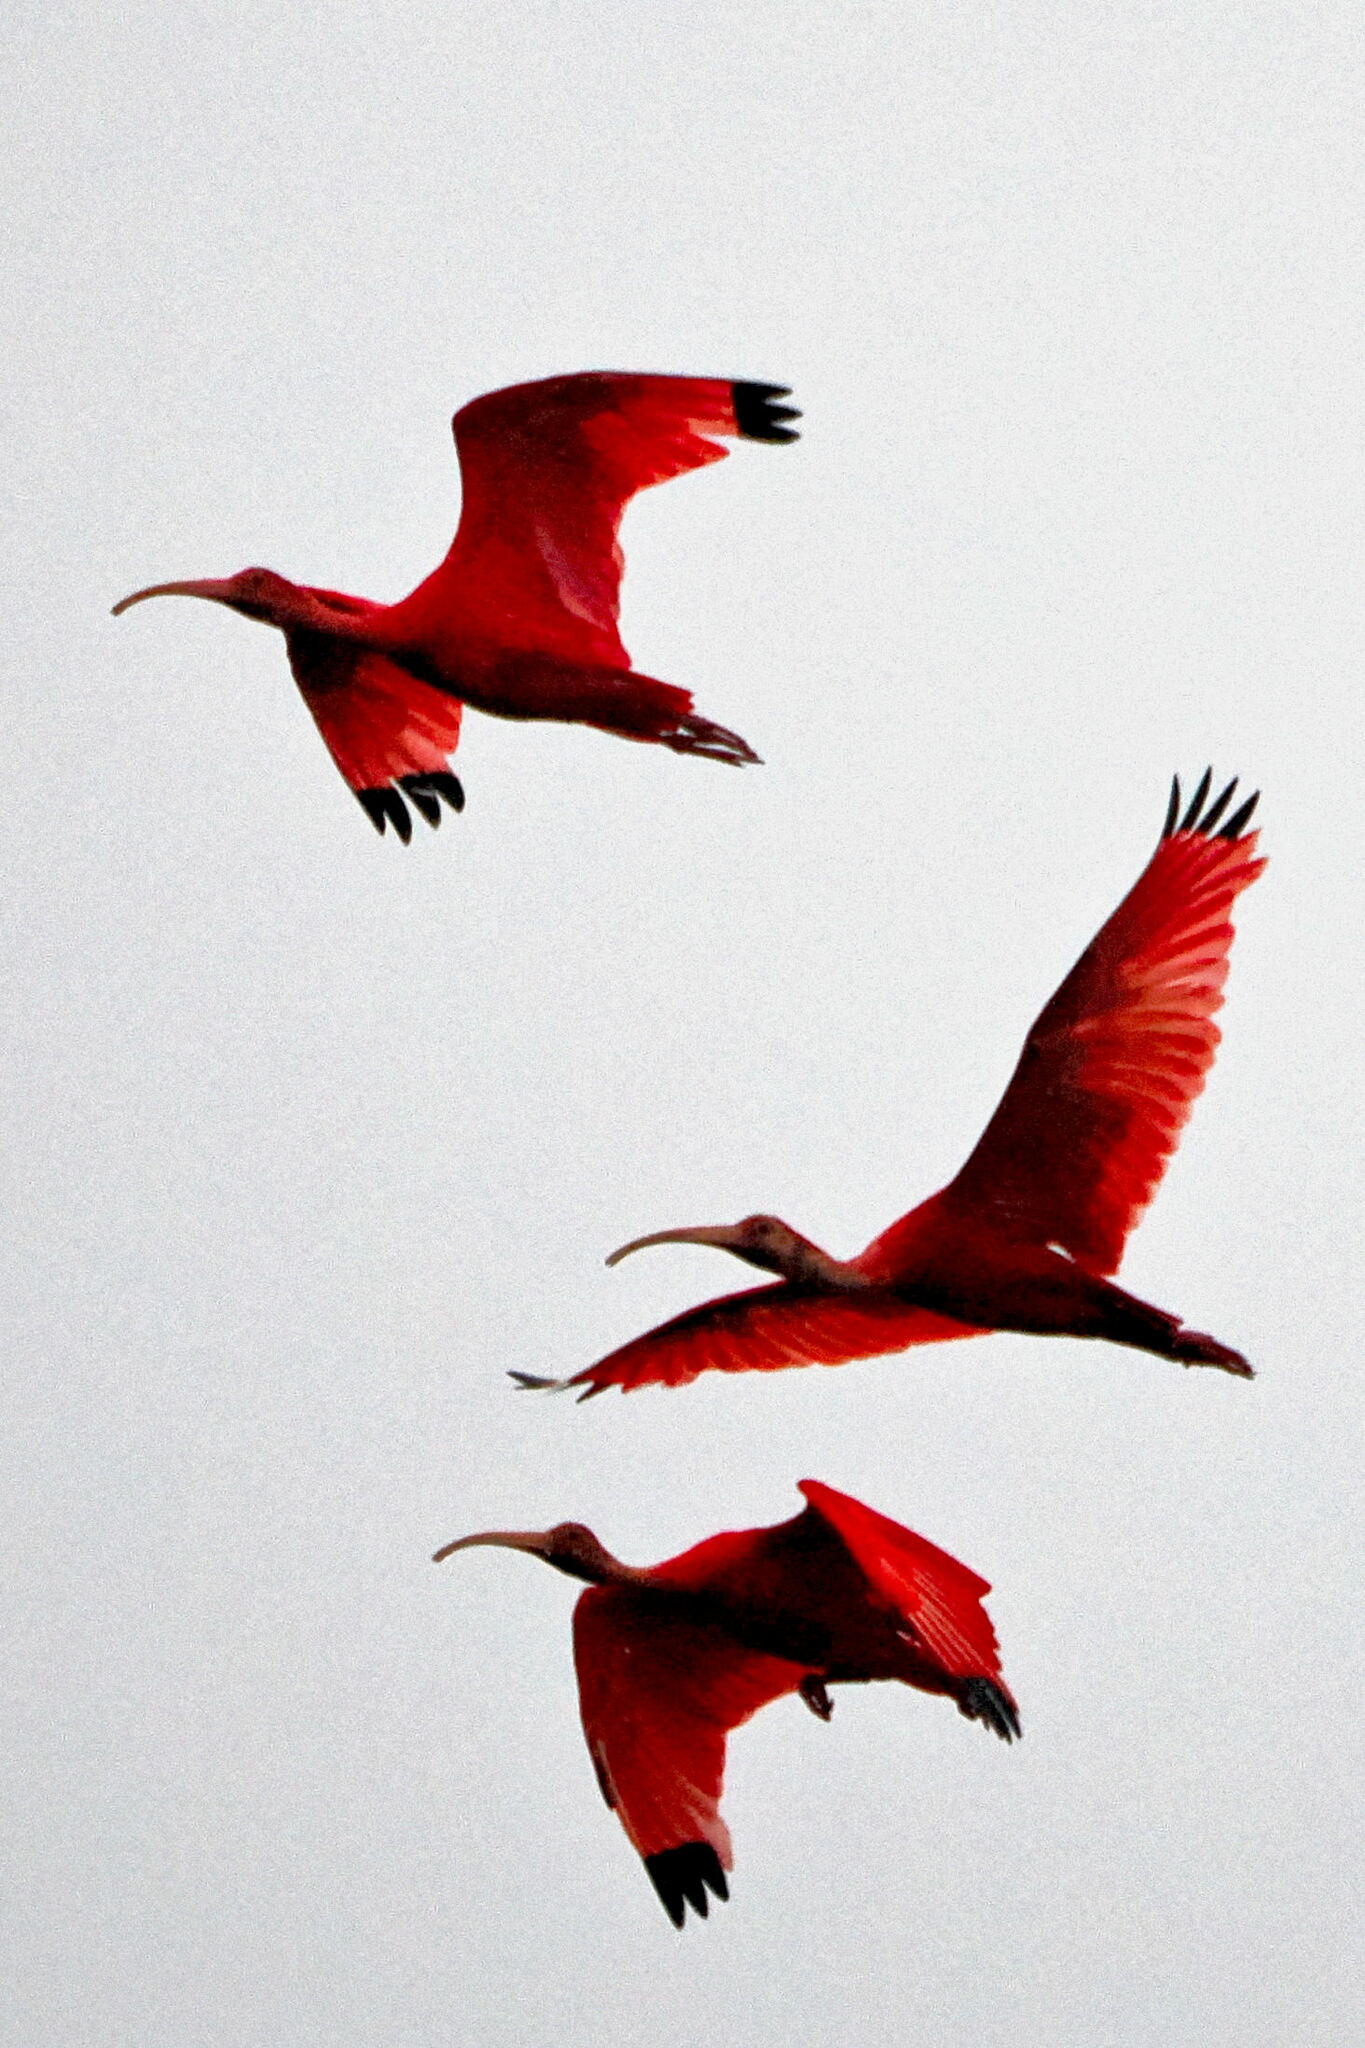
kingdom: Animalia
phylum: Chordata
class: Aves
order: Pelecaniformes
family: Threskiornithidae
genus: Eudocimus
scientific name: Eudocimus ruber
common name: Scarlet ibis
